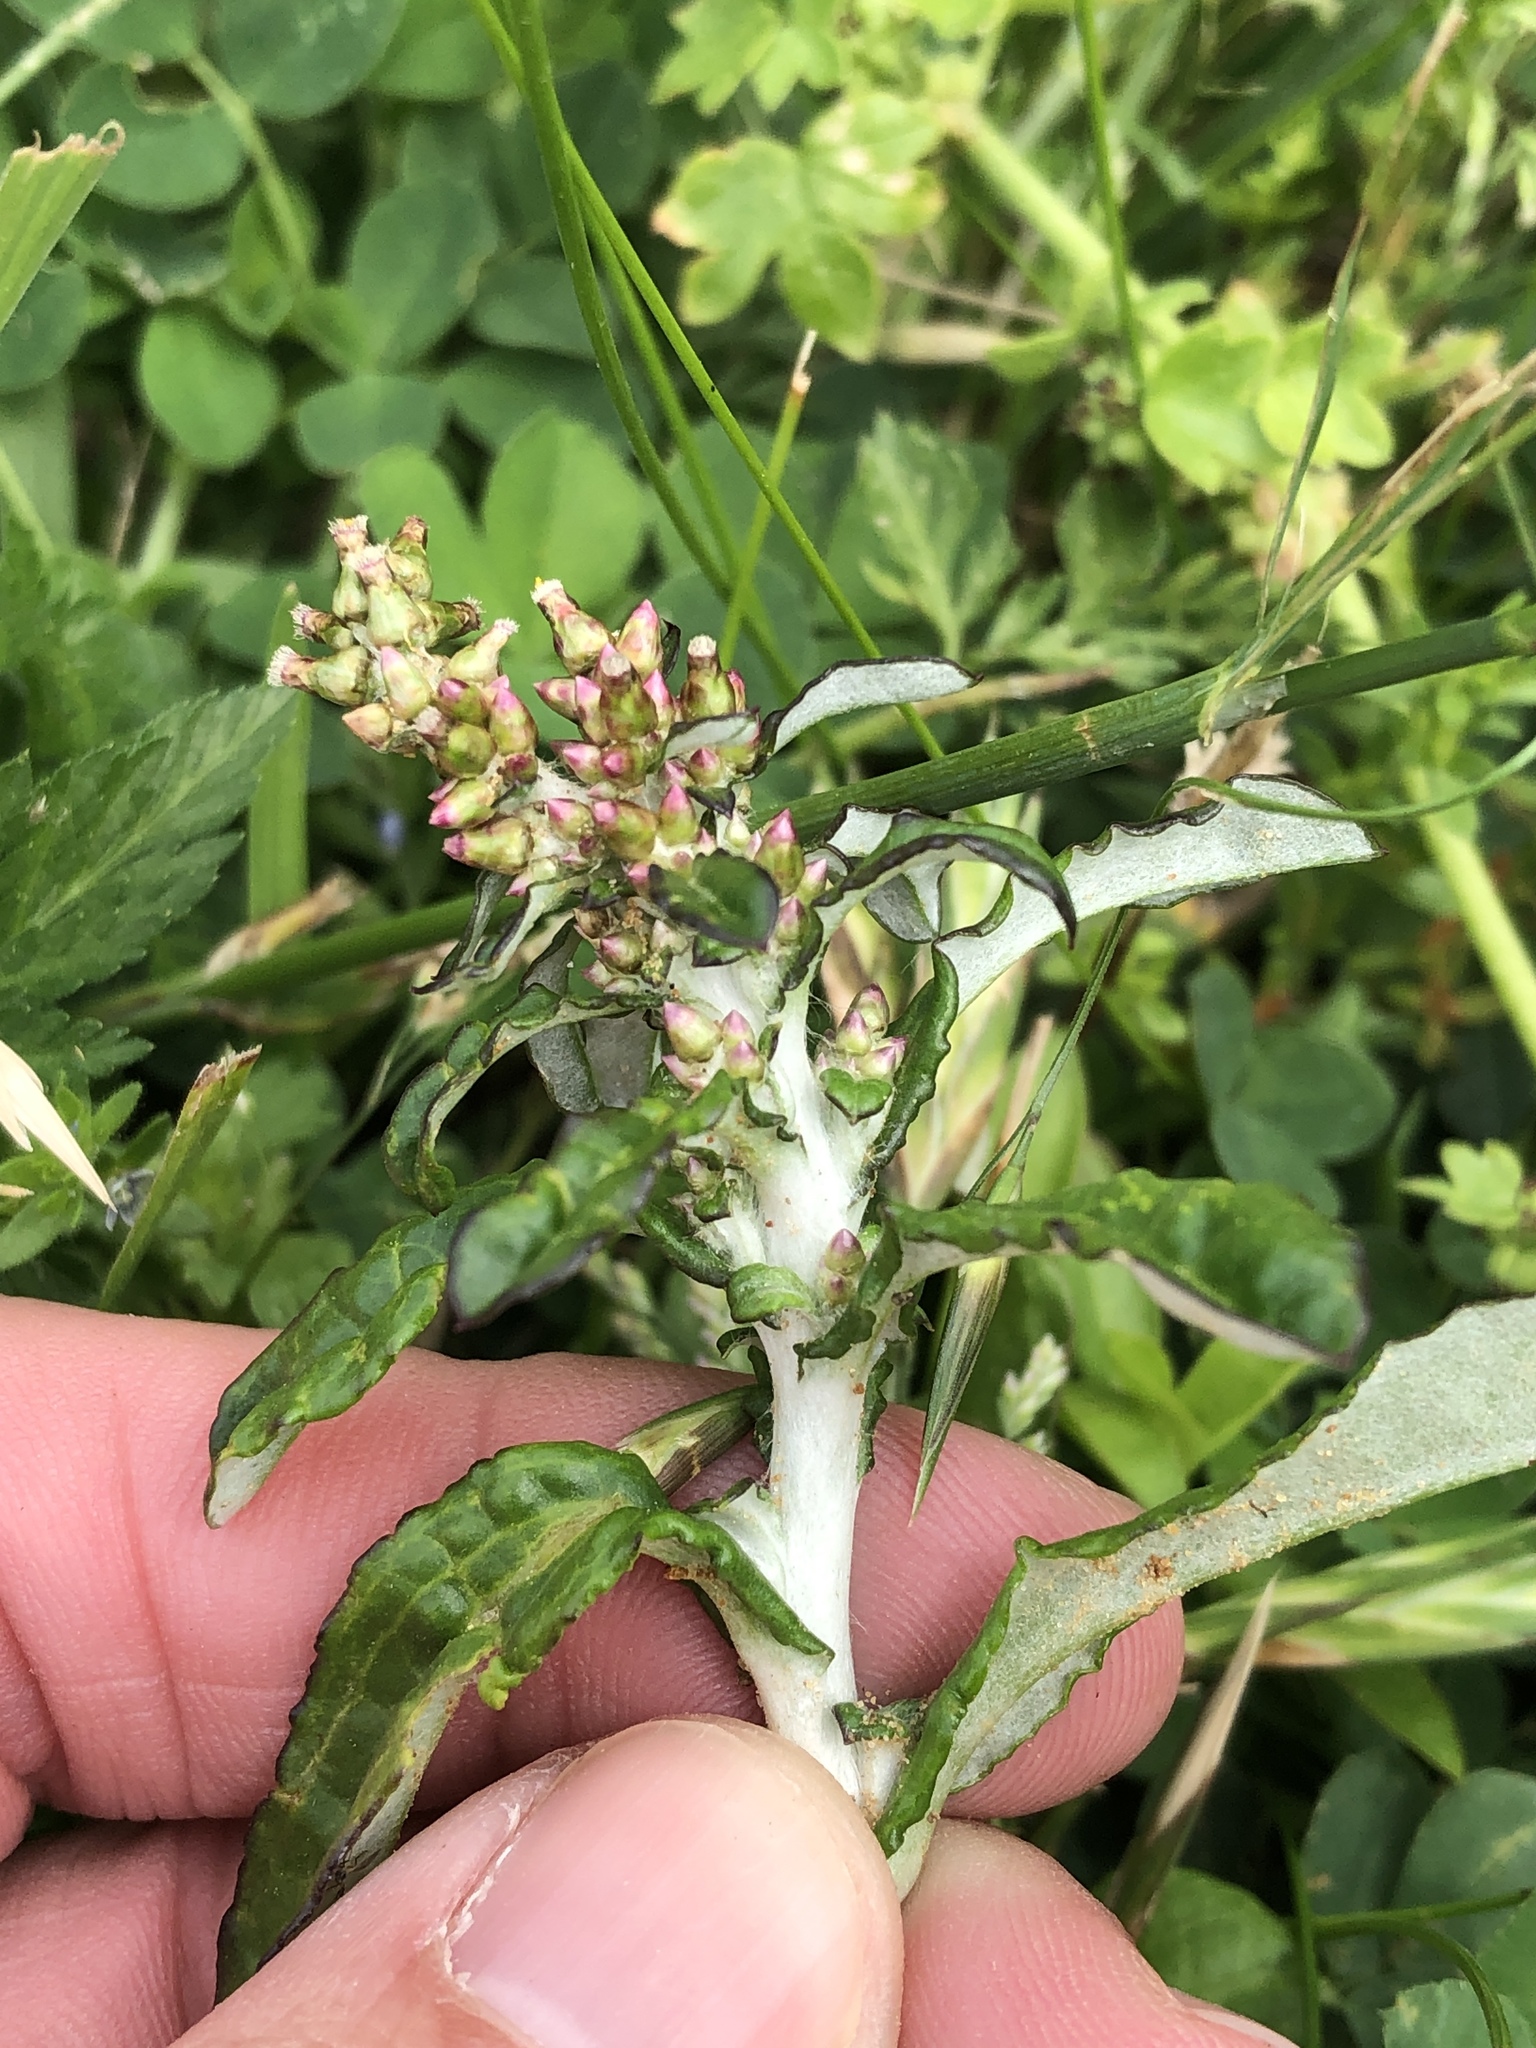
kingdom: Plantae
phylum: Tracheophyta
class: Magnoliopsida
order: Asterales
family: Asteraceae
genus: Gamochaeta
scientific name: Gamochaeta pensylvanica
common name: Pennsylvania everlasting
